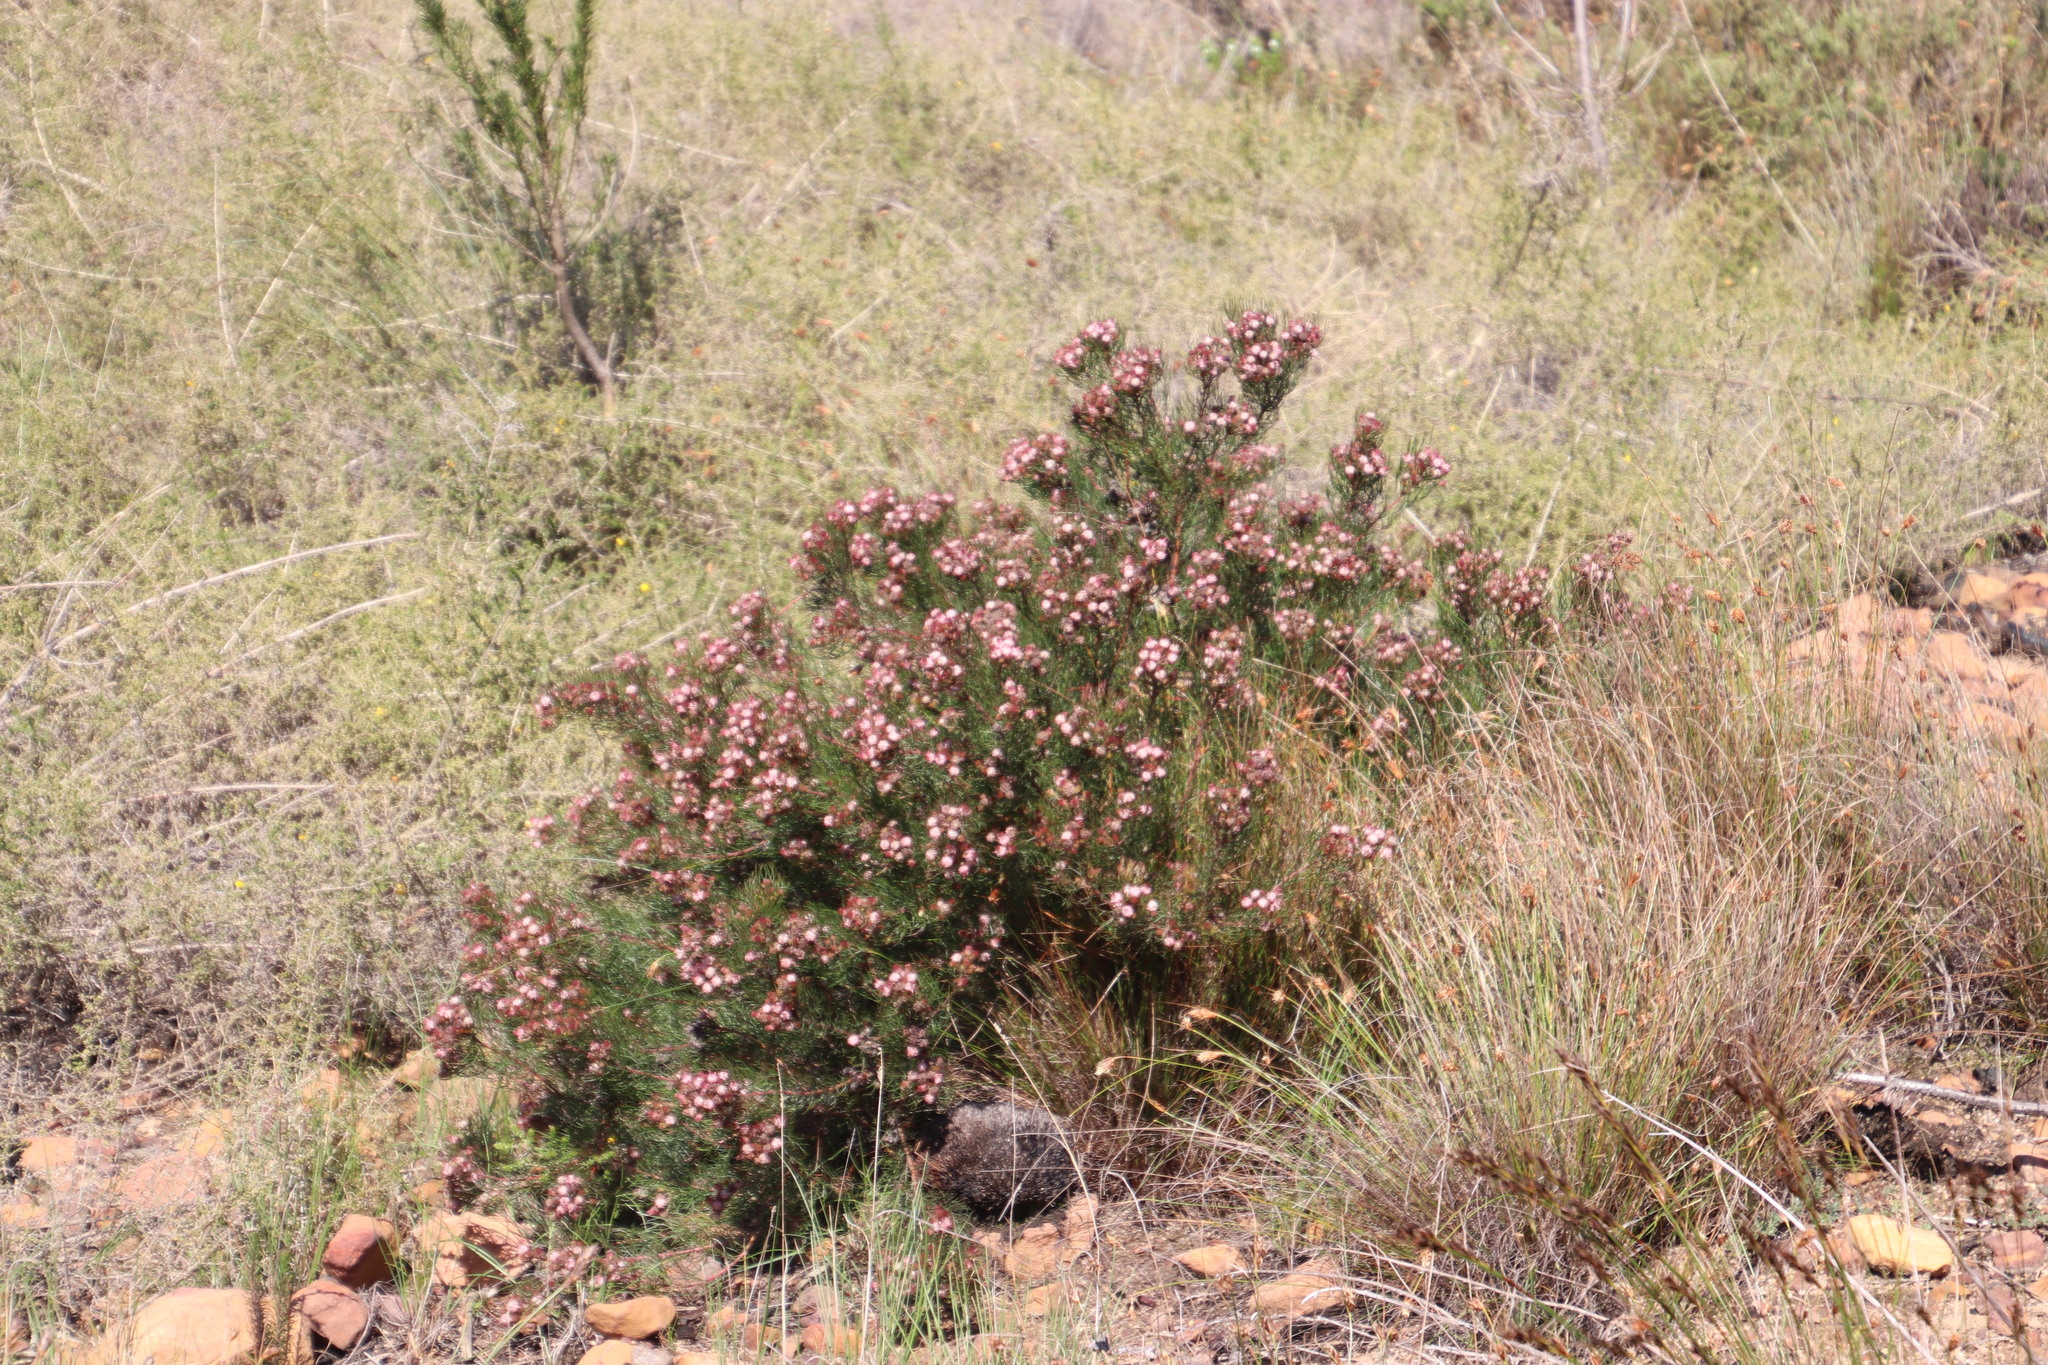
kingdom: Plantae
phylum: Tracheophyta
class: Magnoliopsida
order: Proteales
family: Proteaceae
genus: Serruria
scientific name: Serruria fasciflora
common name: Common pin spiderhead
